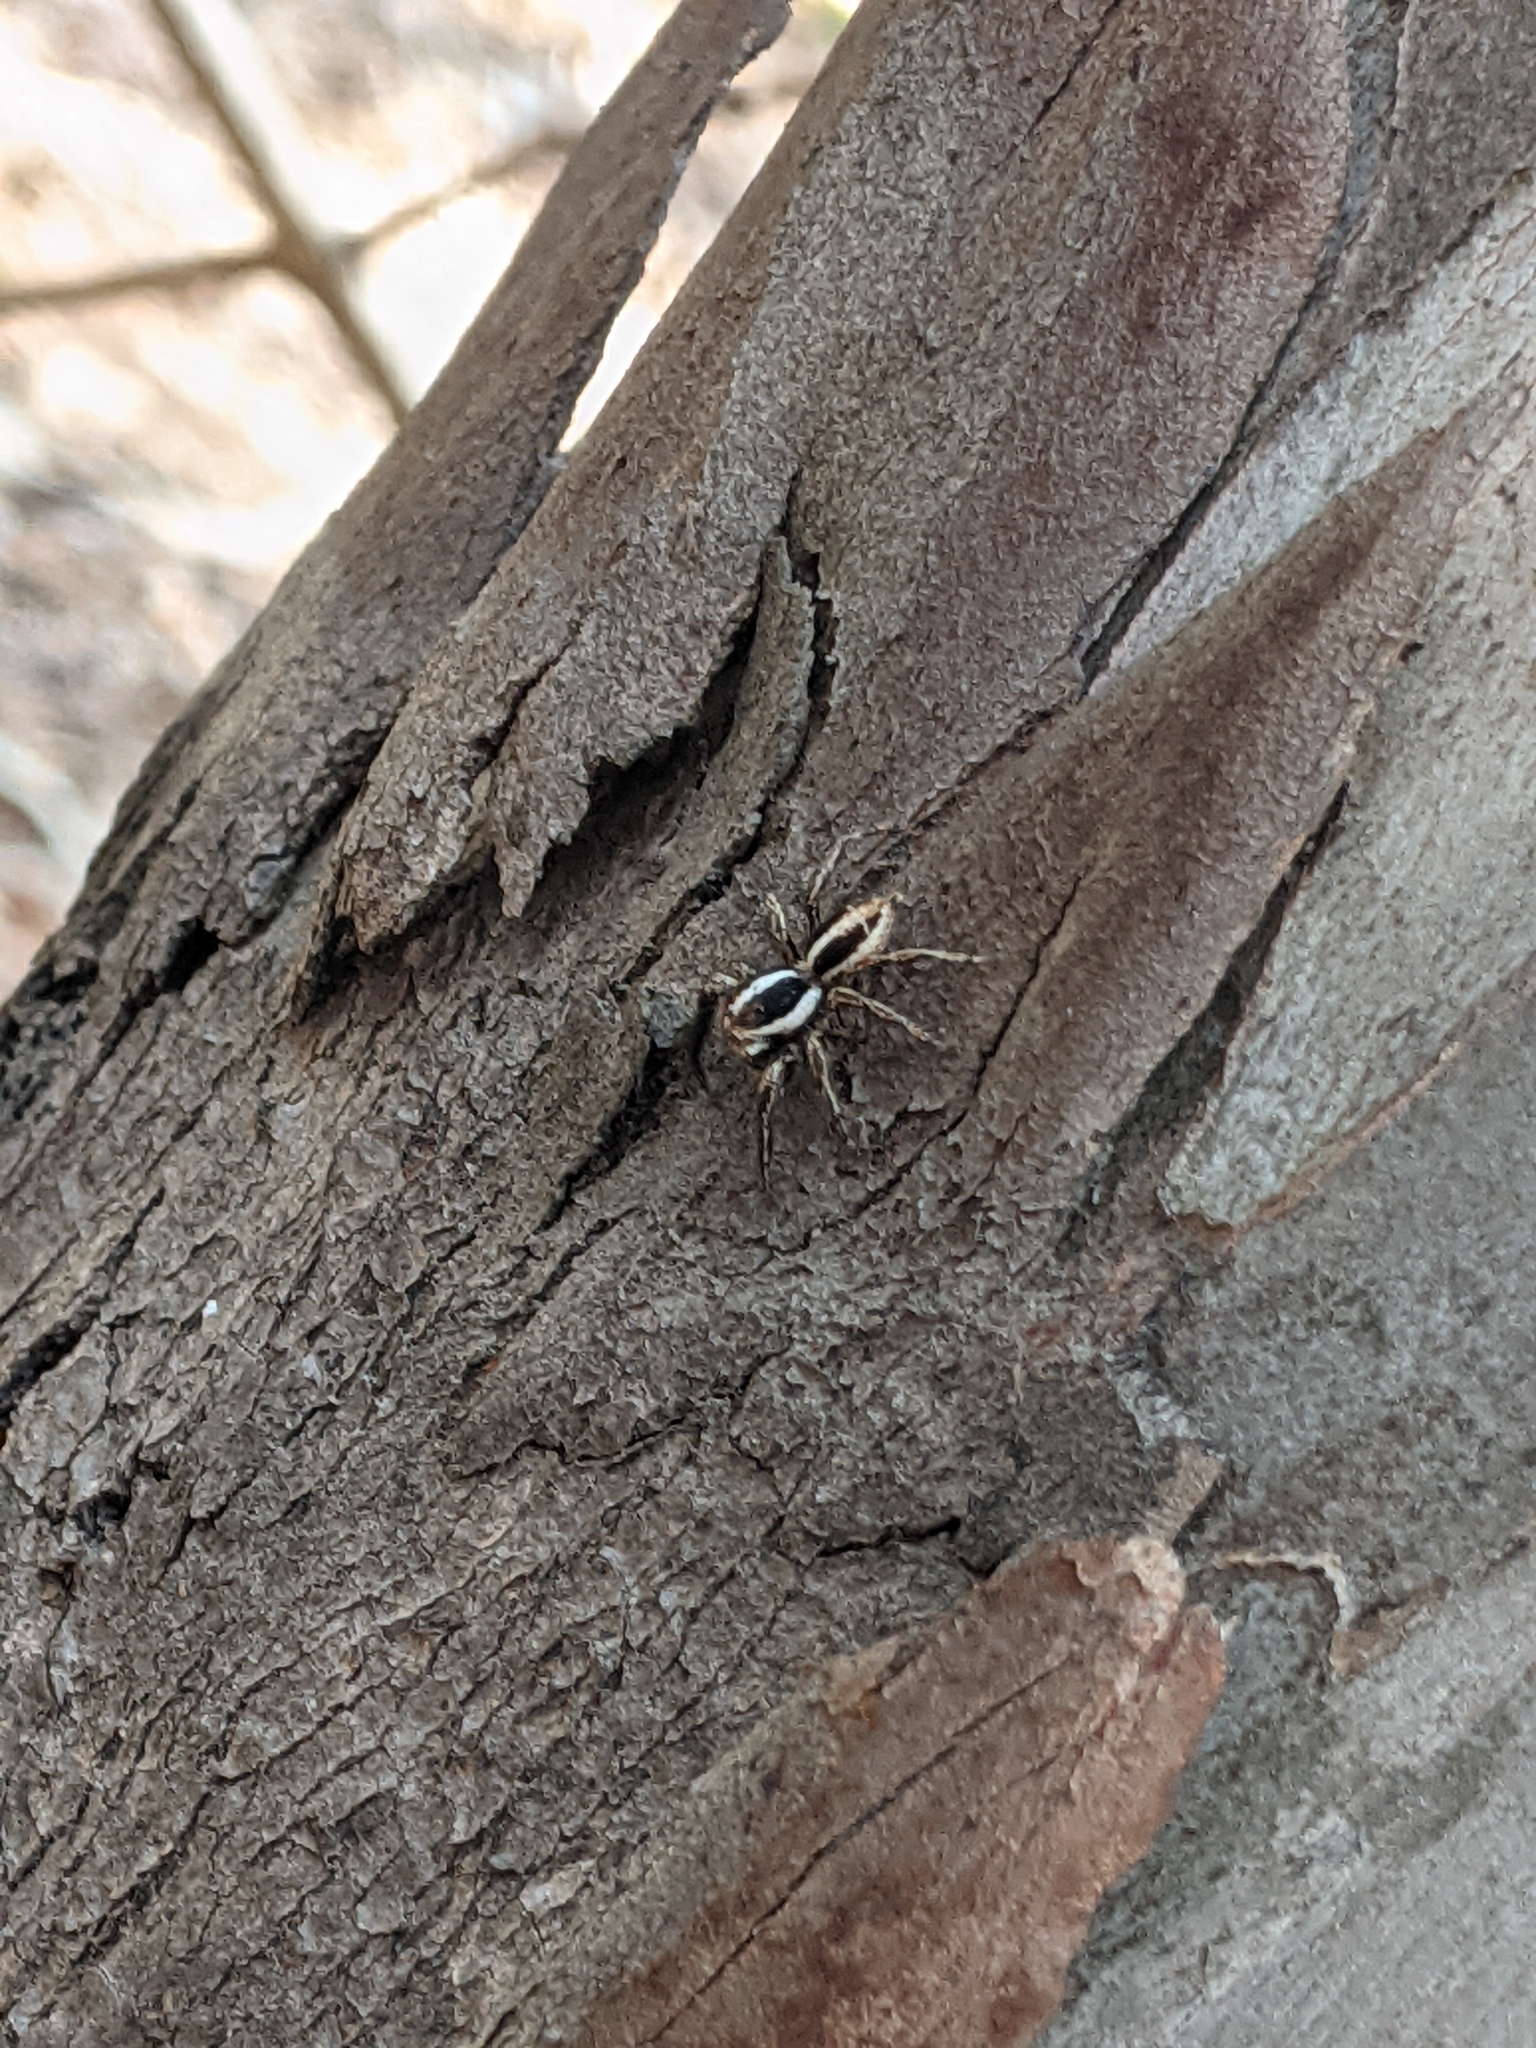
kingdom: Animalia
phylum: Arthropoda
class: Arachnida
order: Araneae
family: Salticidae
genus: Plexippus
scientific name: Plexippus paykulli
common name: Pantropical jumper
